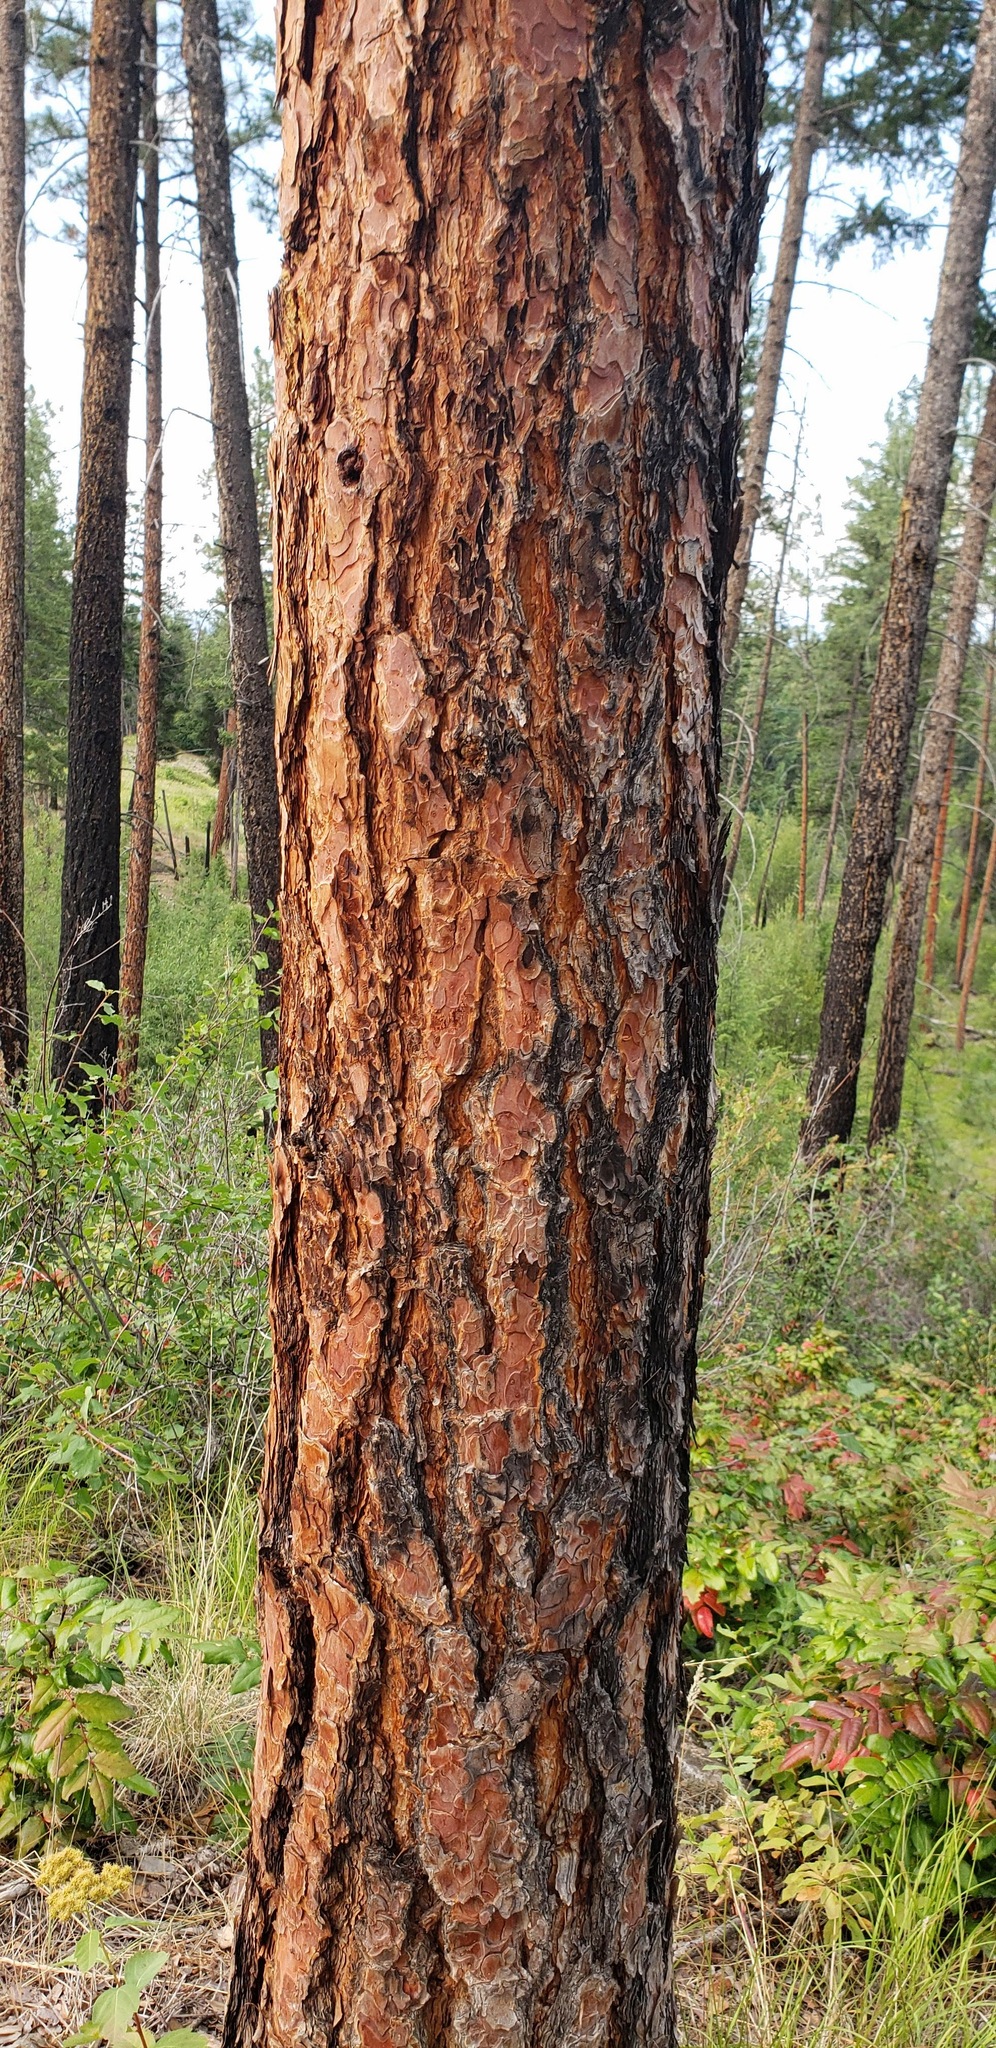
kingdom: Plantae
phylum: Tracheophyta
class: Pinopsida
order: Pinales
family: Pinaceae
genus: Pinus
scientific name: Pinus ponderosa
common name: Western yellow-pine
